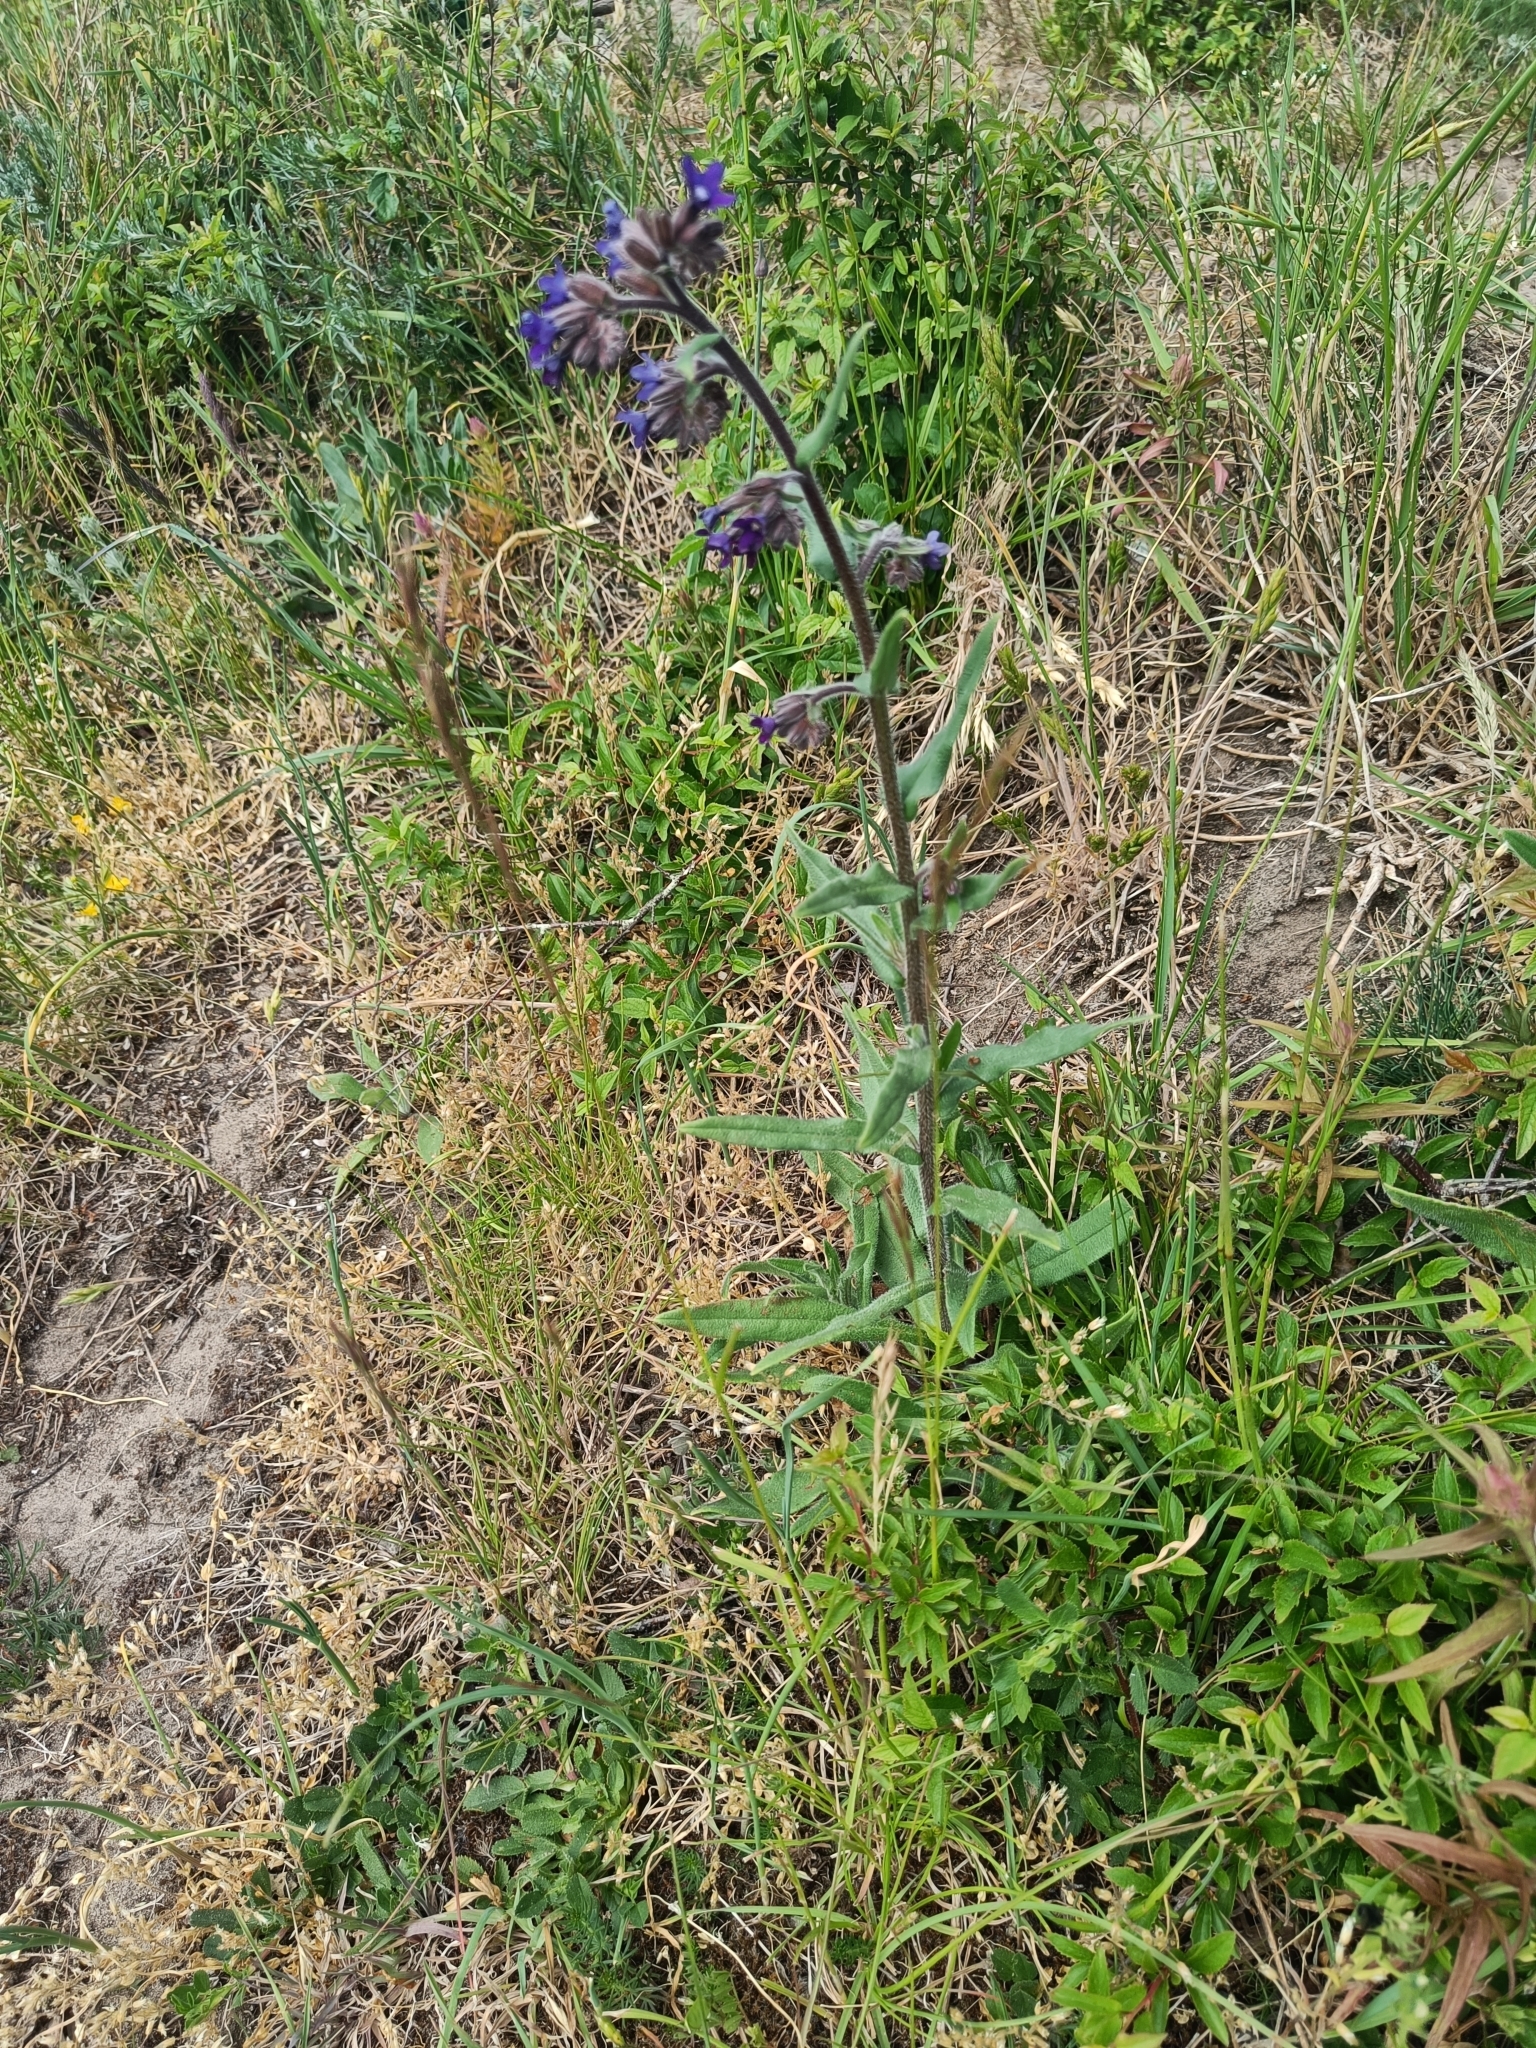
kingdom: Plantae
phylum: Tracheophyta
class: Magnoliopsida
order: Boraginales
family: Boraginaceae
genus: Anchusa
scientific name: Anchusa officinalis
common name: Alkanet
